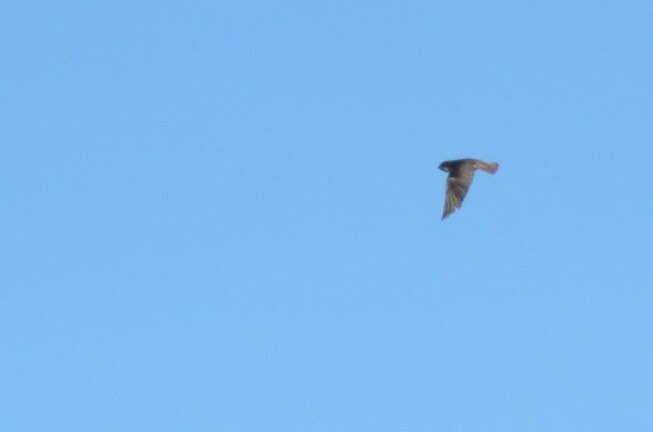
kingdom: Animalia
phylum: Chordata
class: Aves
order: Passeriformes
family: Hirundinidae
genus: Haplochelidon
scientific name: Haplochelidon andecola
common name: Andean swallow
